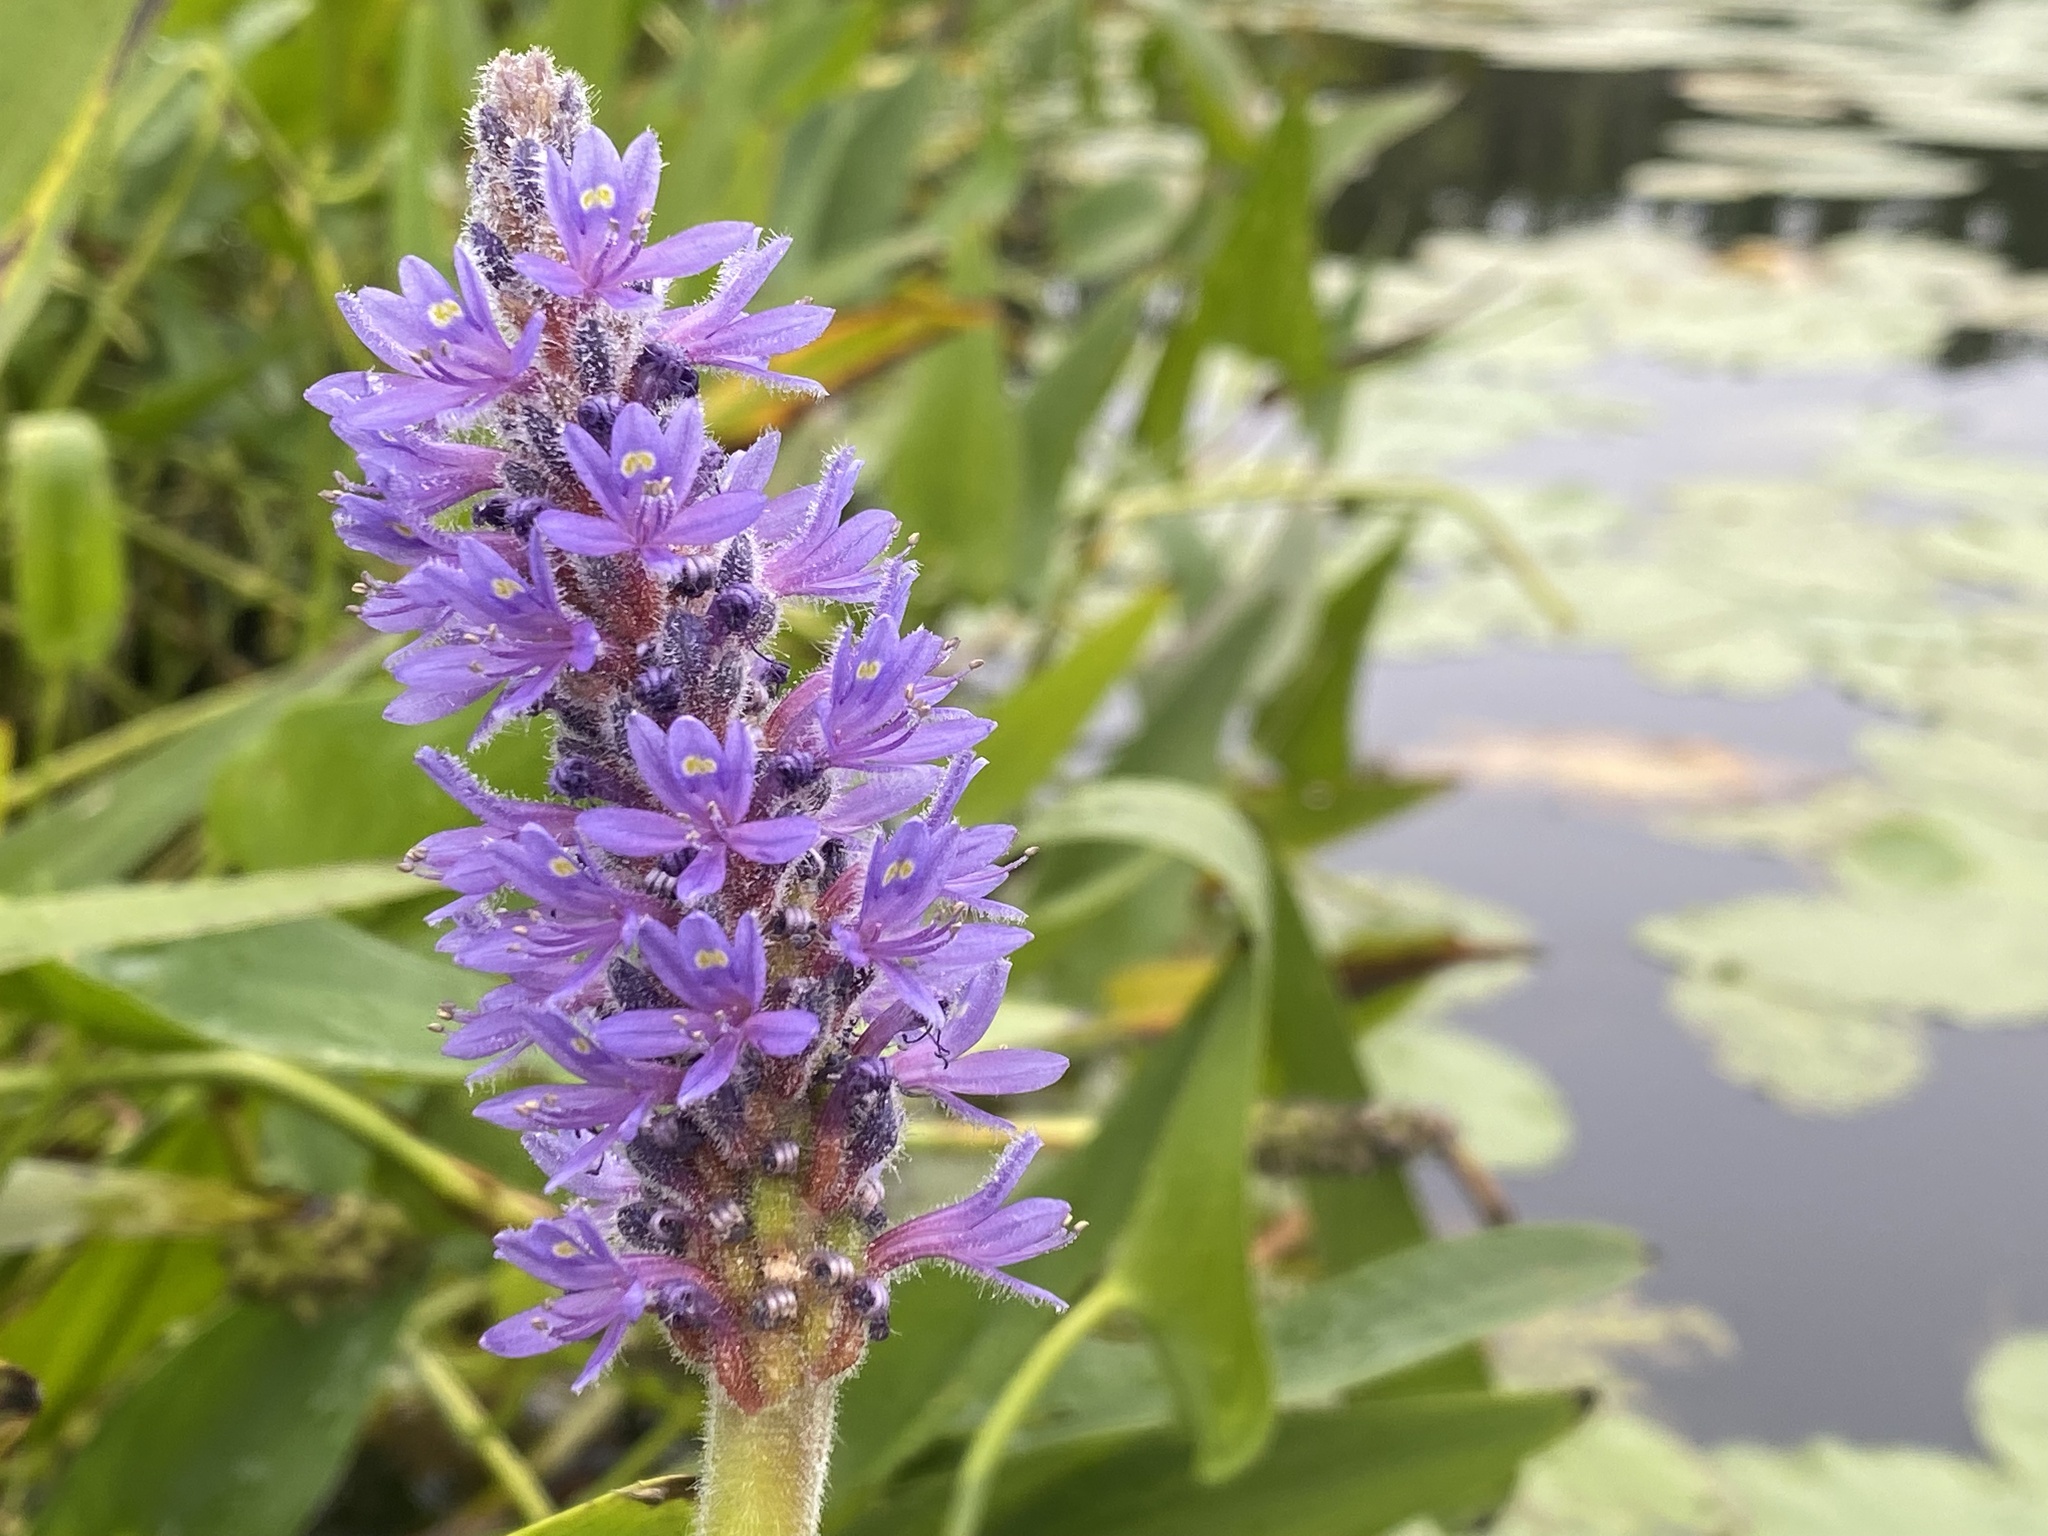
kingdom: Plantae
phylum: Tracheophyta
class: Liliopsida
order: Commelinales
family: Pontederiaceae
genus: Pontederia
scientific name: Pontederia cordata
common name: Pickerelweed
